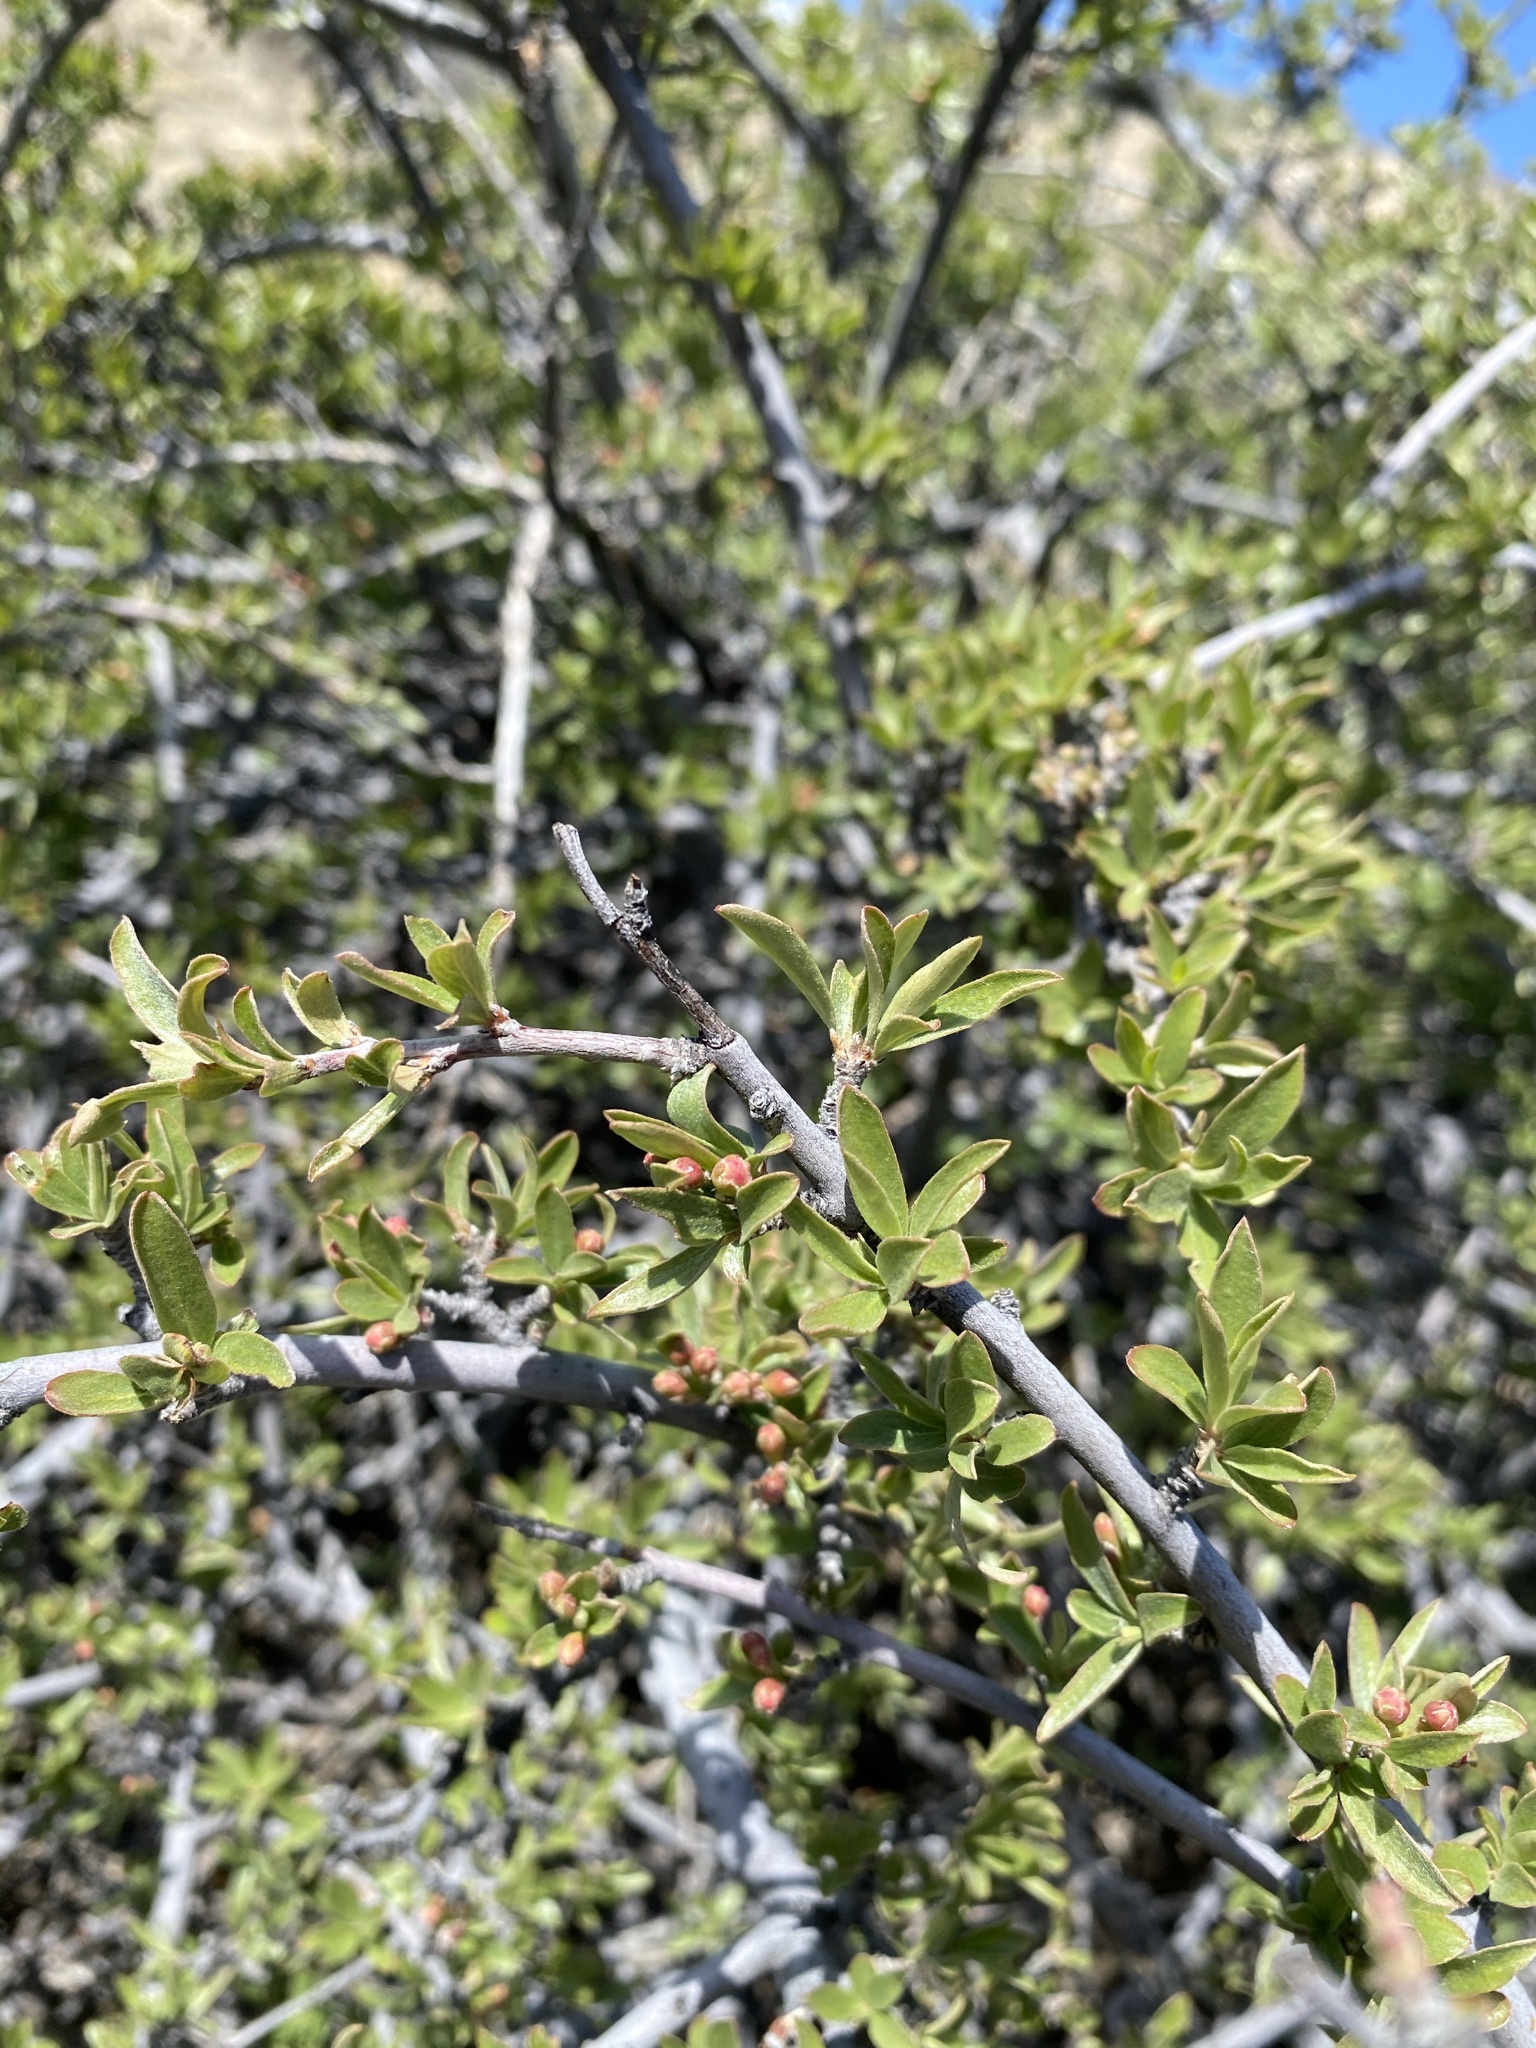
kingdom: Plantae
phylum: Tracheophyta
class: Magnoliopsida
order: Rosales
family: Rosaceae
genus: Amelanchier
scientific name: Amelanchier ramosissima
